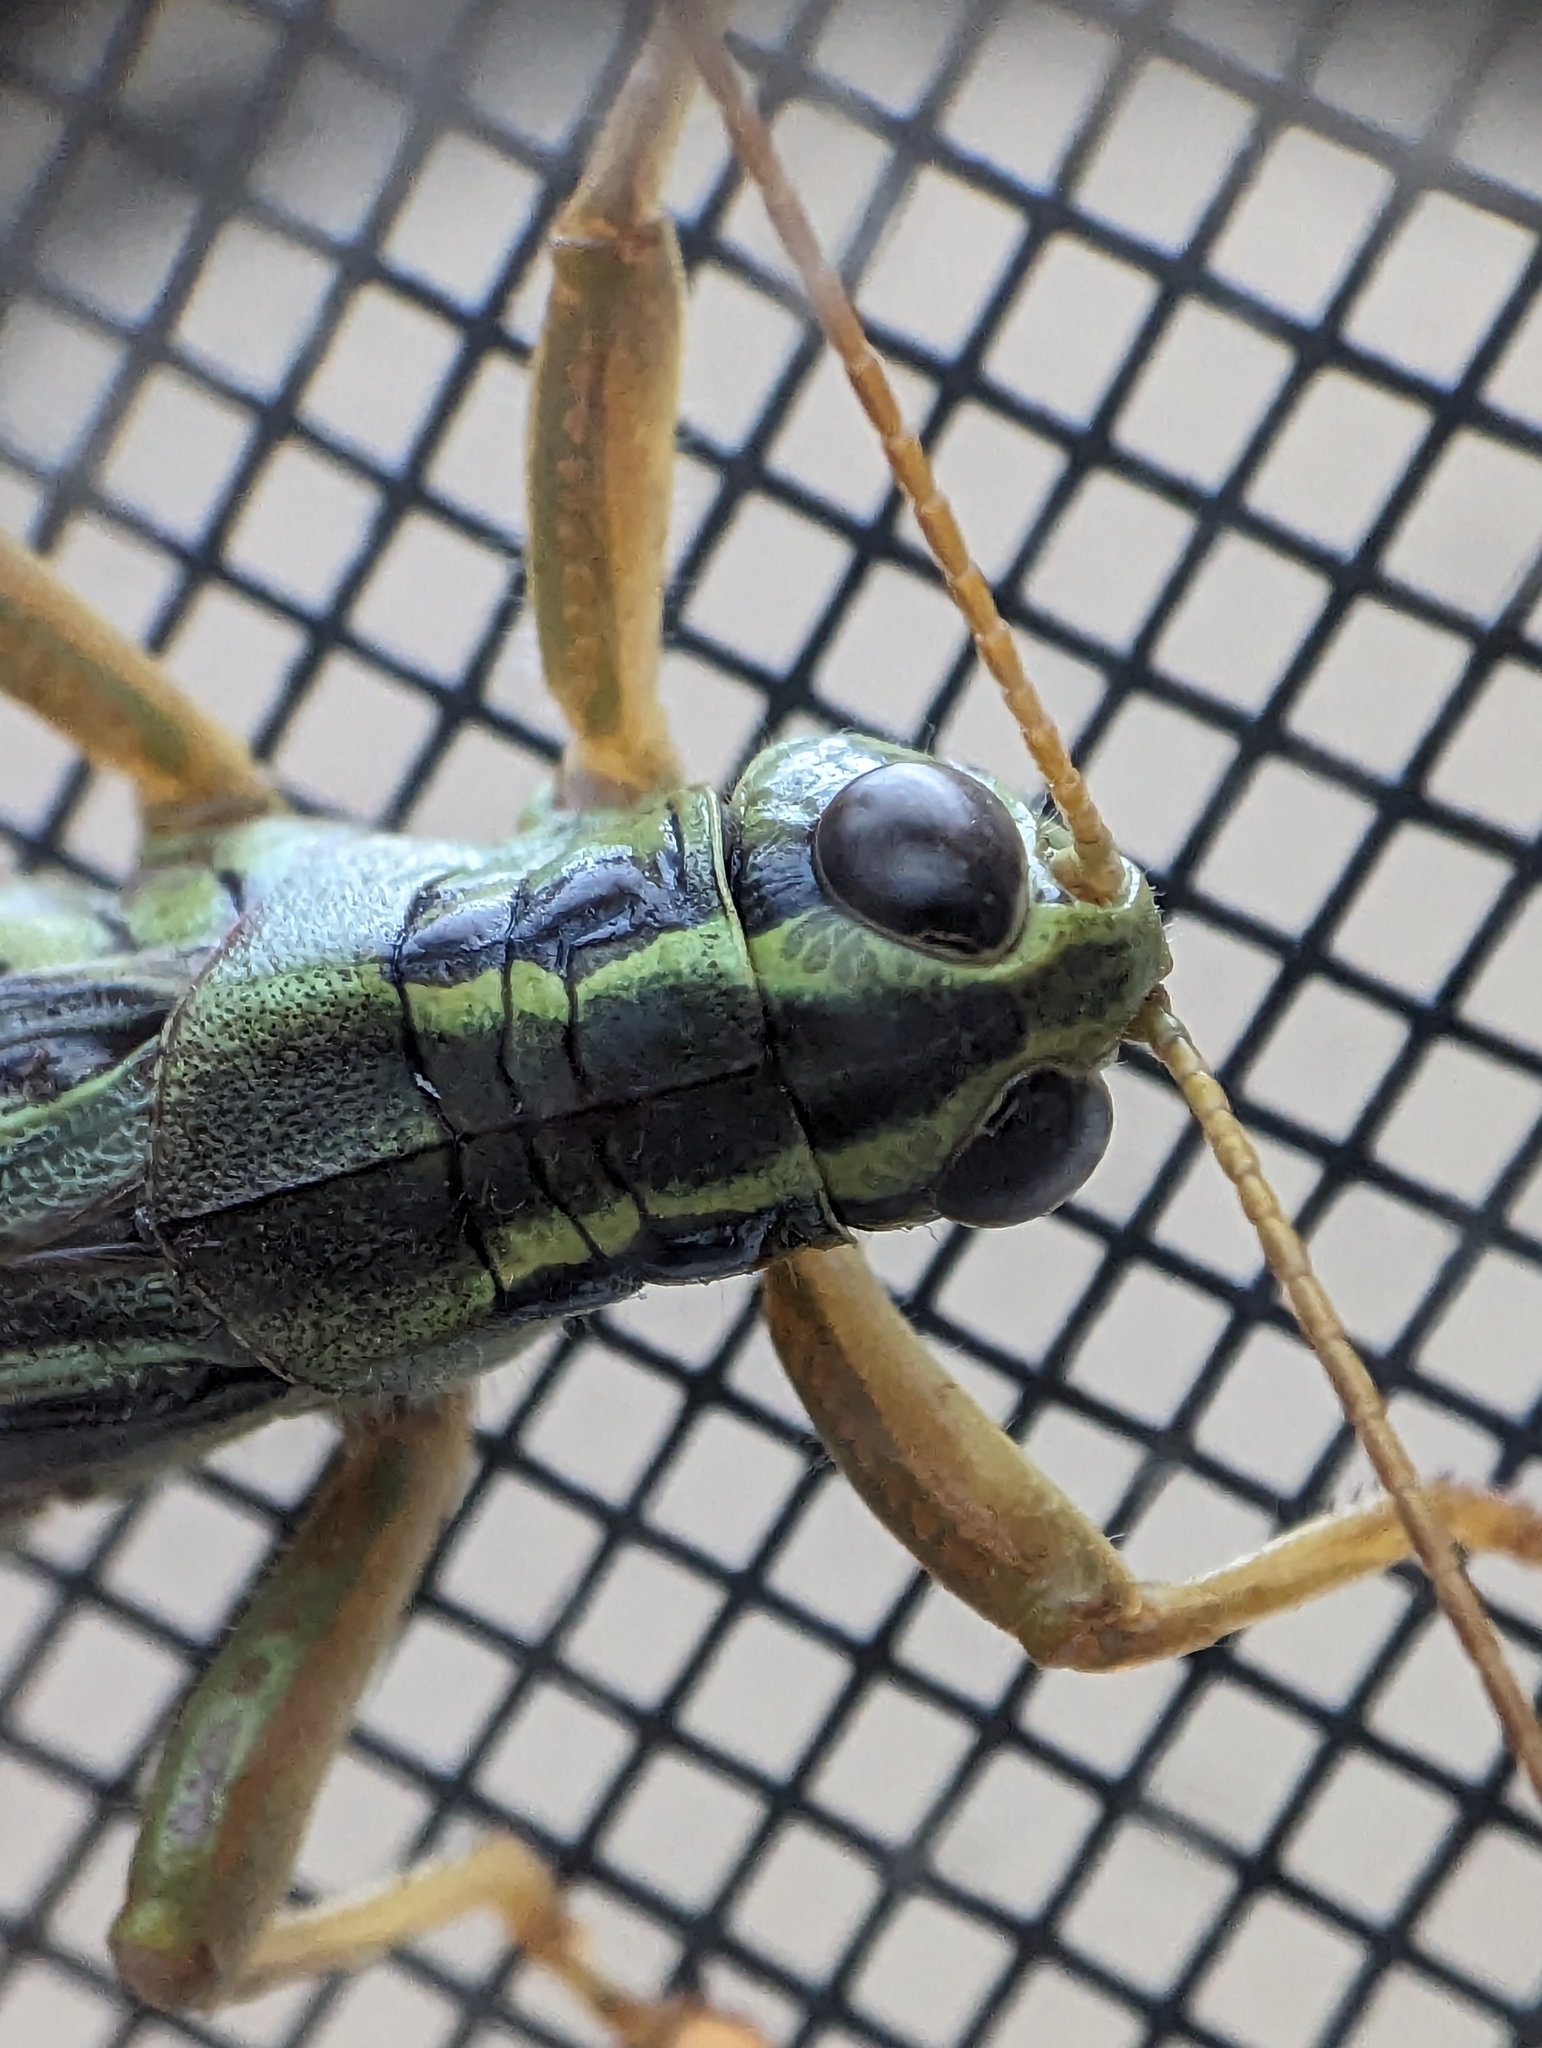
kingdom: Animalia
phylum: Arthropoda
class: Insecta
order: Orthoptera
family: Acrididae
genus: Melanoplus
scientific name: Melanoplus bivittatus
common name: Two-striped grasshopper
